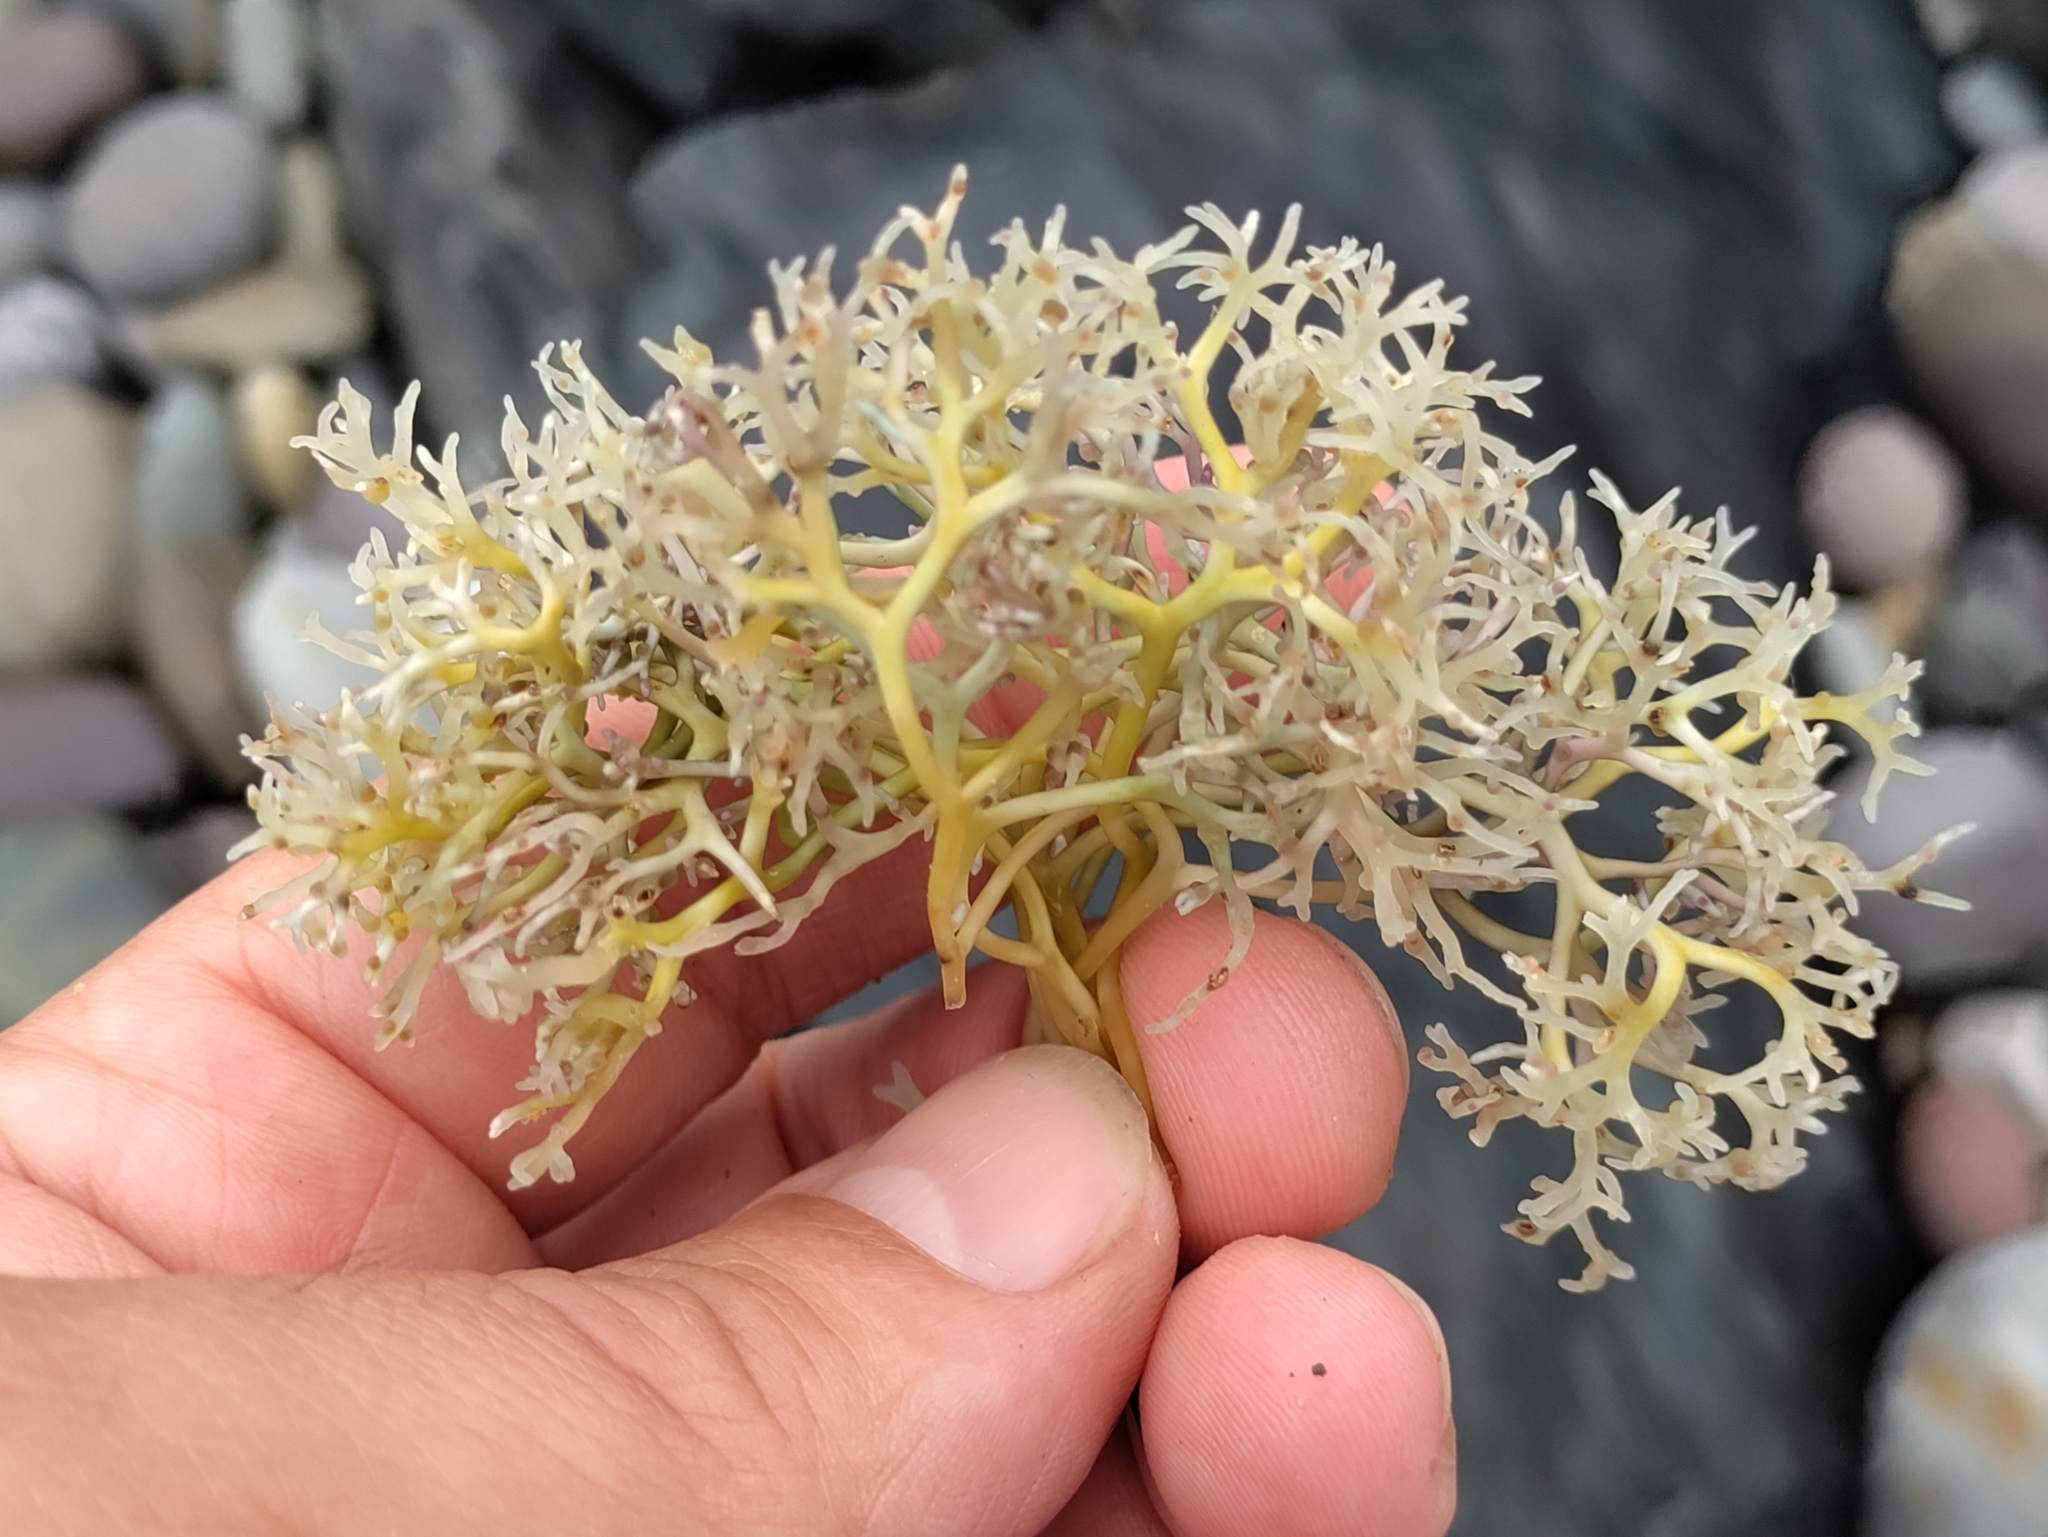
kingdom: Plantae
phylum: Rhodophyta
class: Florideophyceae
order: Gigartinales
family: Phyllophoraceae
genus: Gymnogongrus
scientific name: Gymnogongrus durvillei
